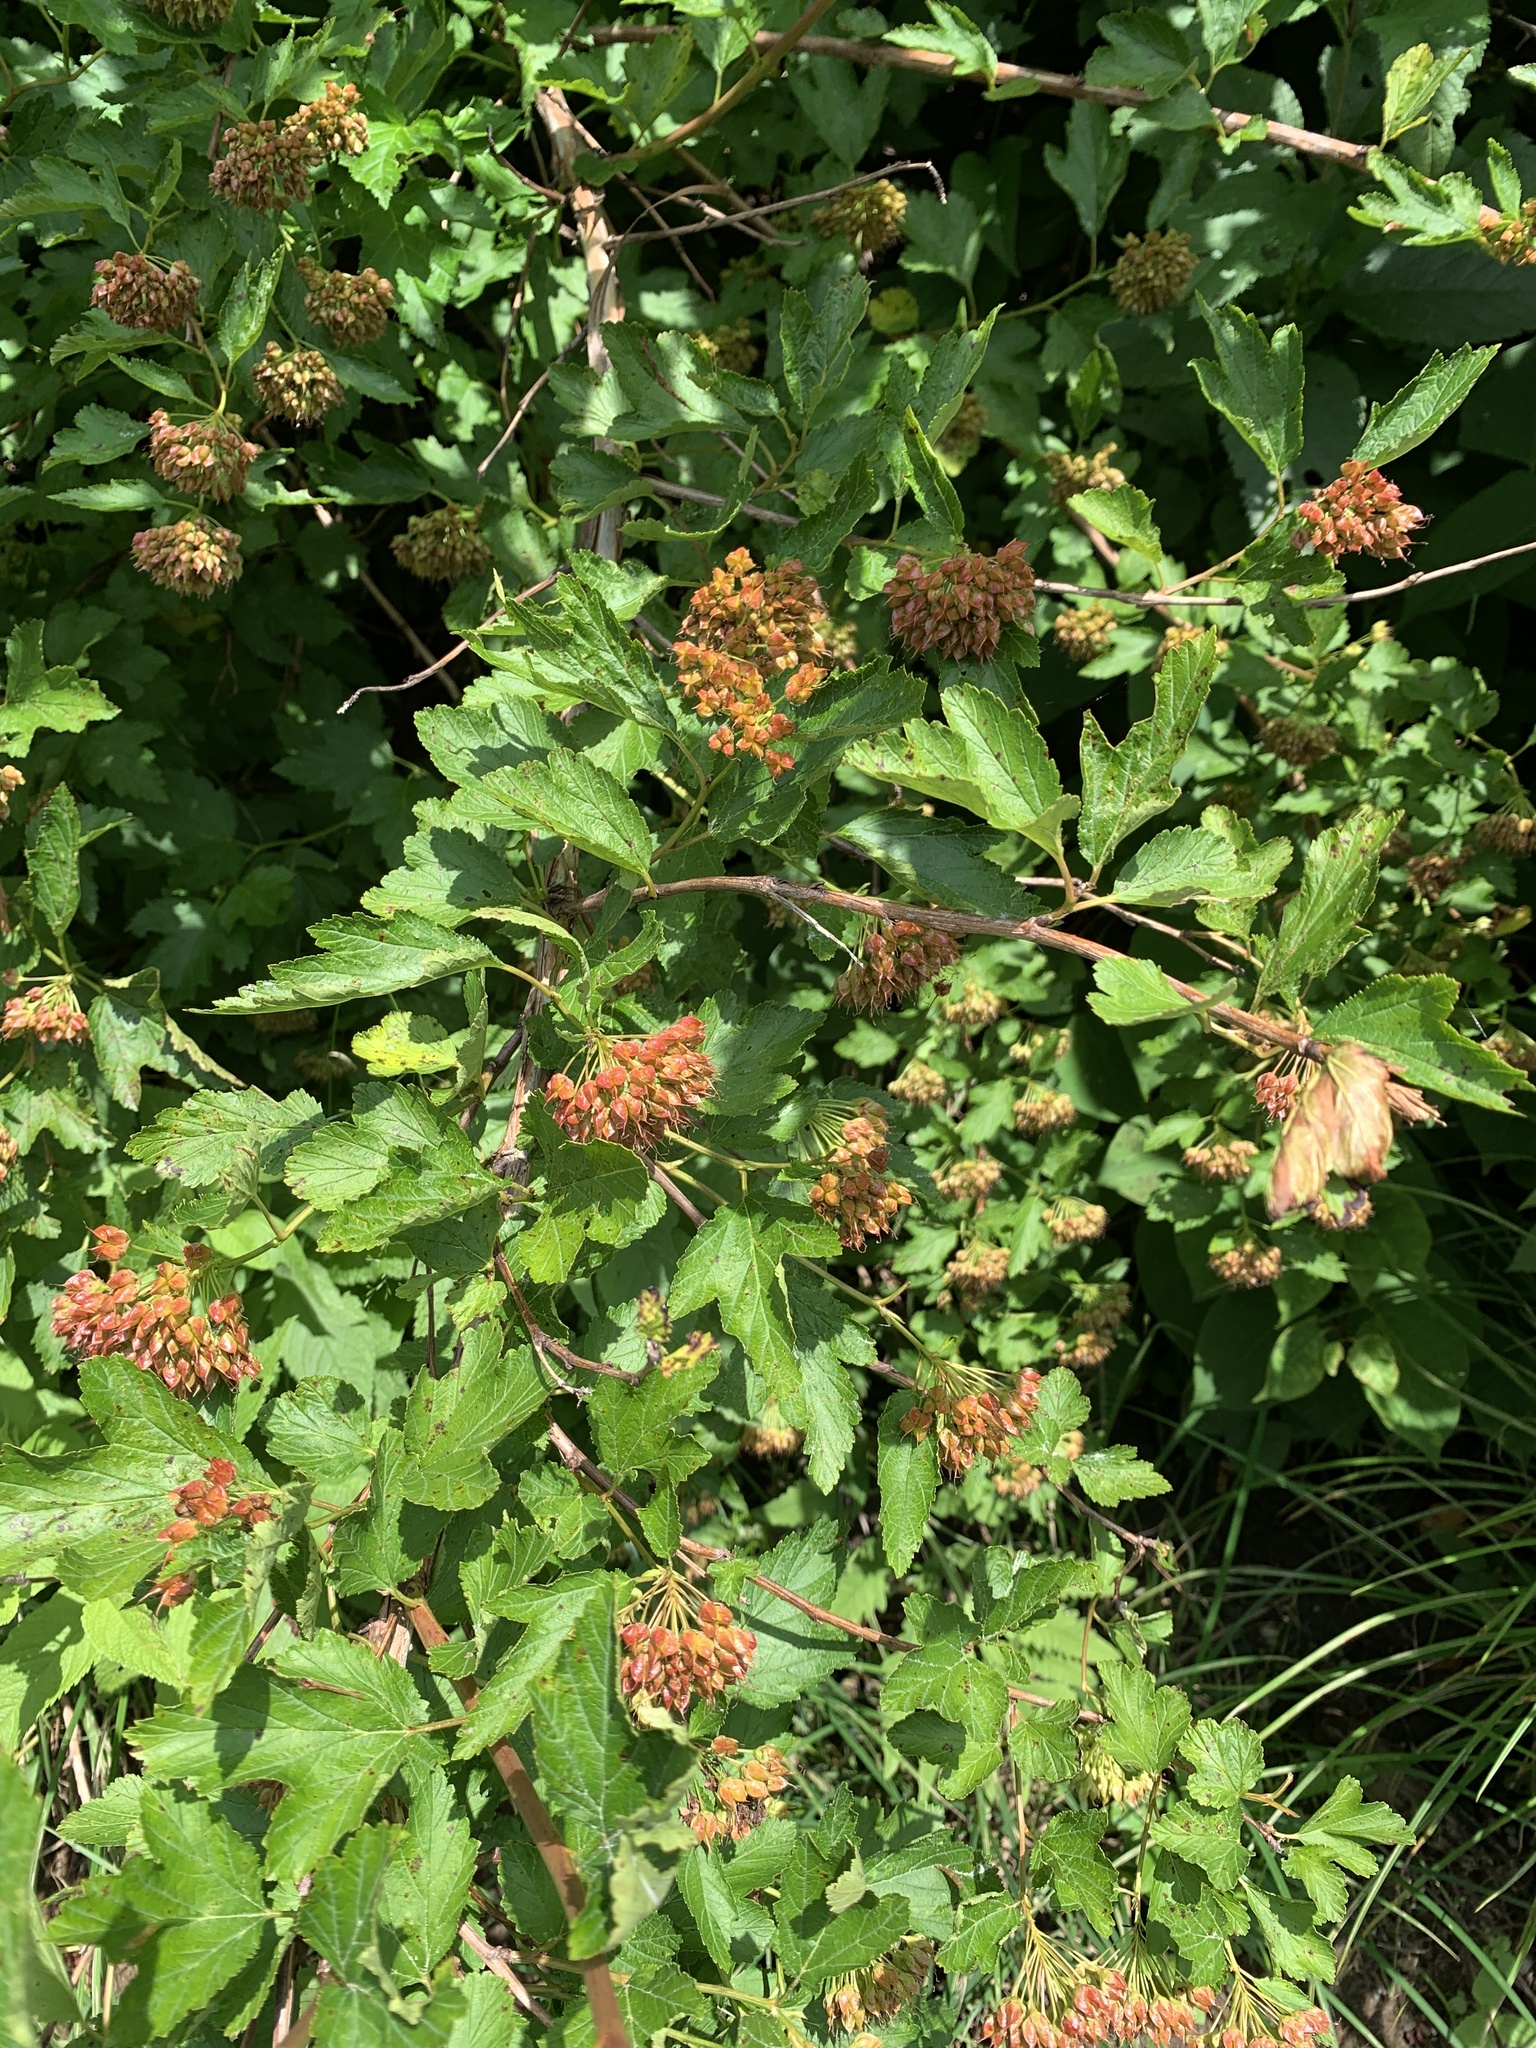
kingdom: Plantae
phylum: Tracheophyta
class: Magnoliopsida
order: Rosales
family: Rosaceae
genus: Physocarpus
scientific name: Physocarpus opulifolius
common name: Ninebark
